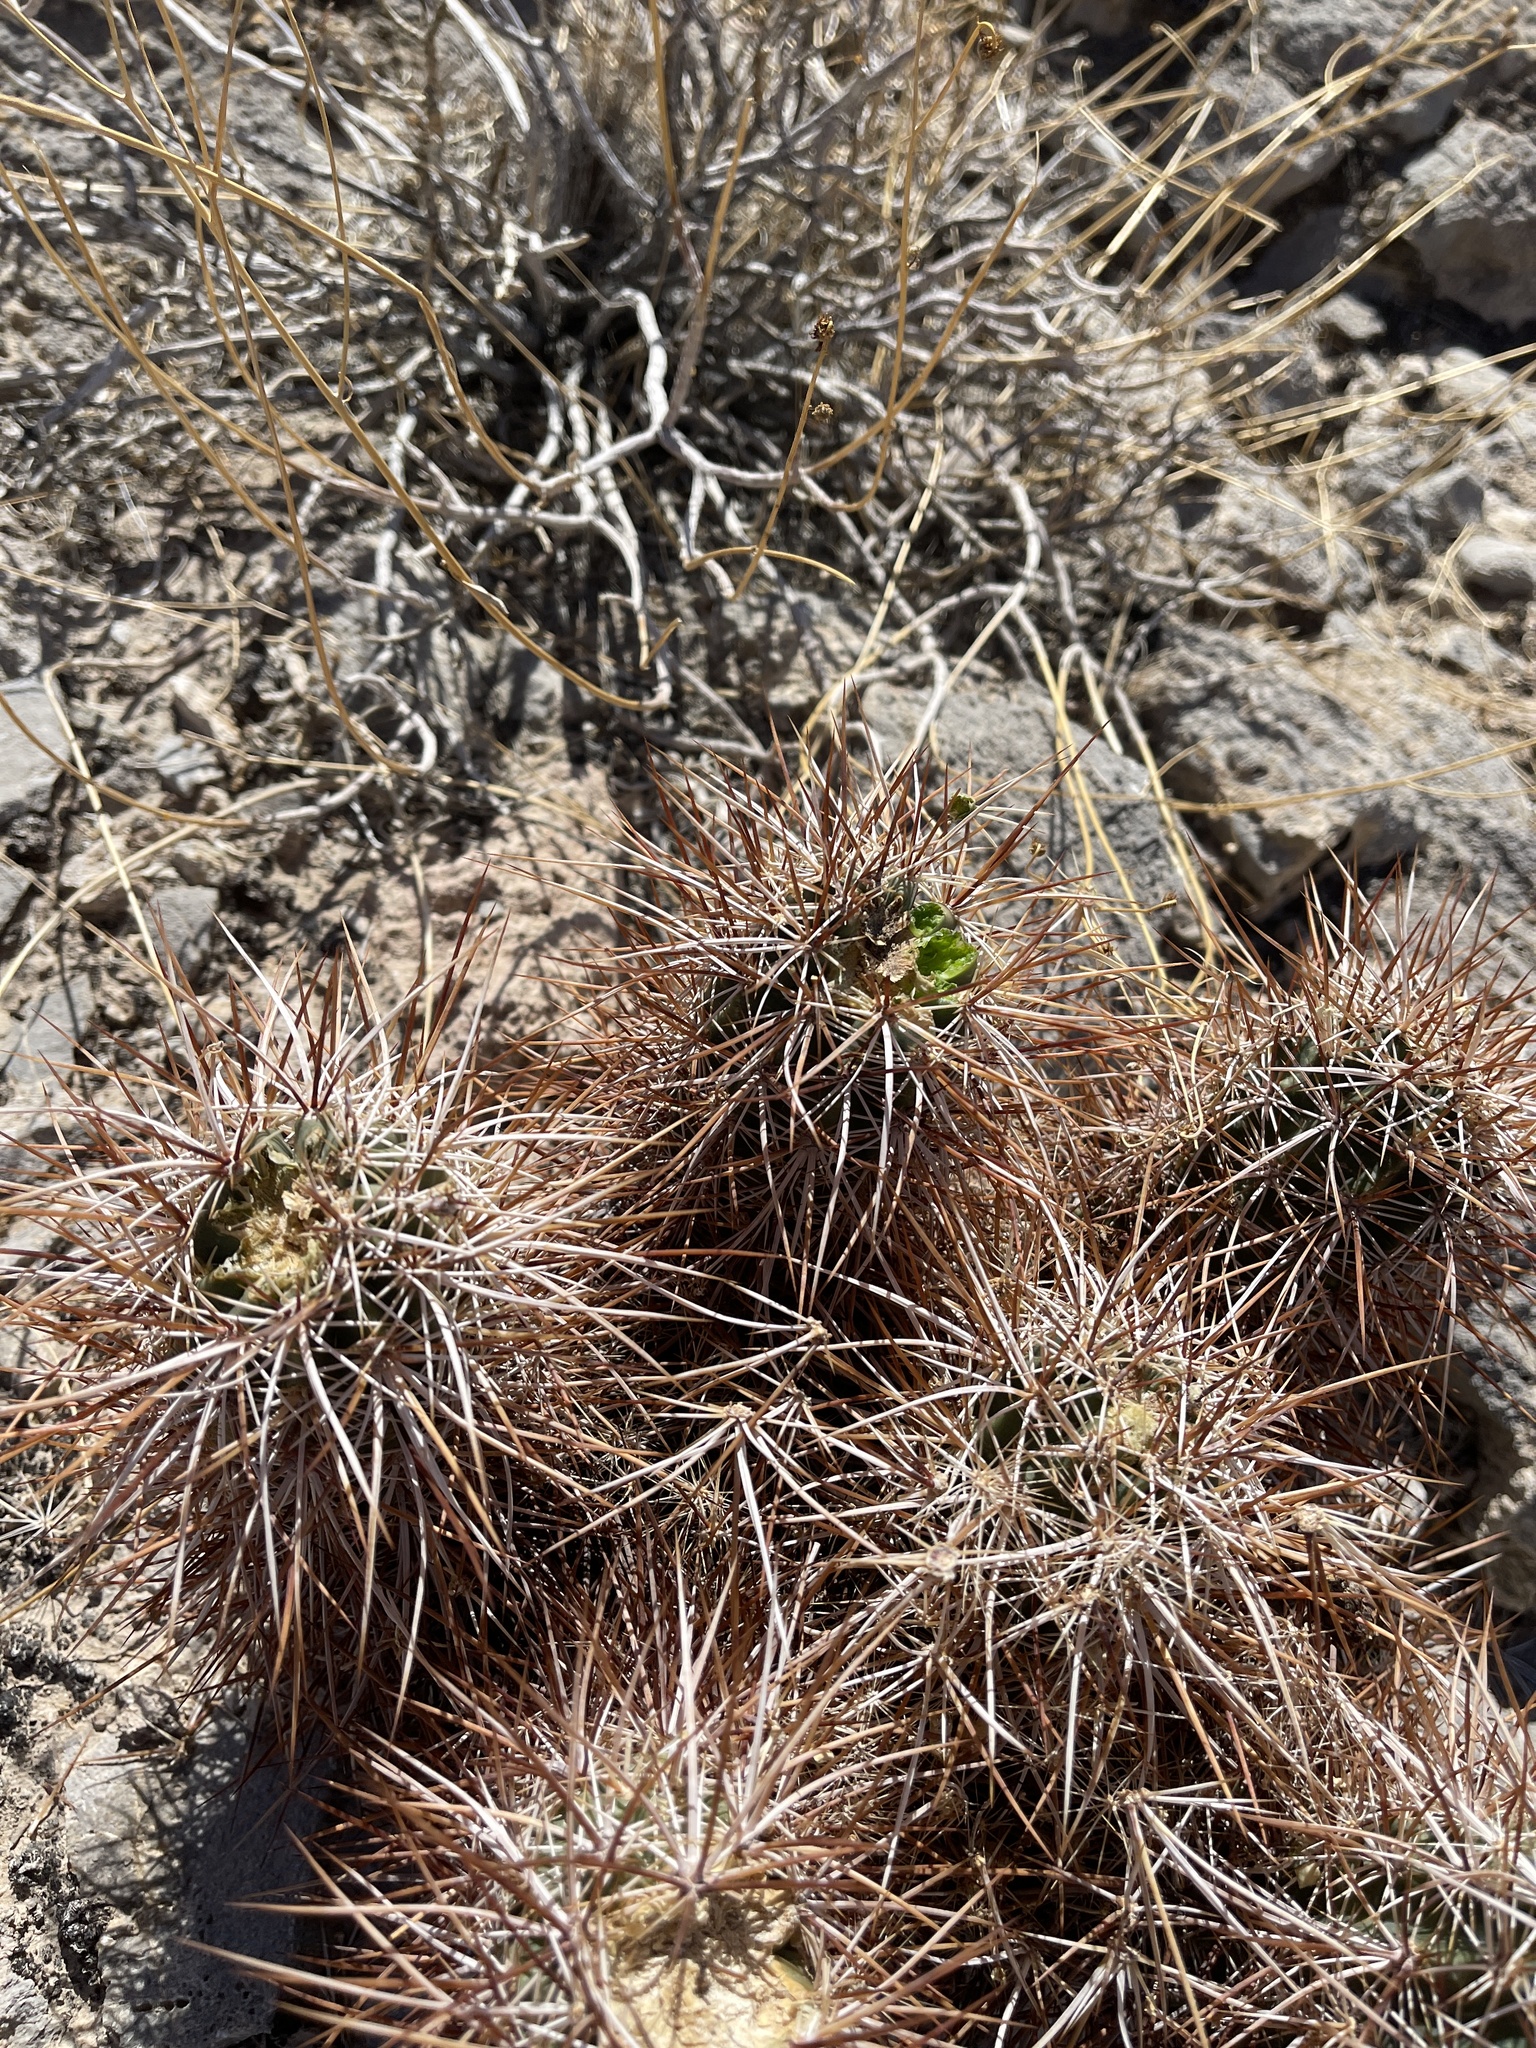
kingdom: Plantae
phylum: Tracheophyta
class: Magnoliopsida
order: Caryophyllales
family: Cactaceae
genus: Echinocereus
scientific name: Echinocereus engelmannii
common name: Engelmann's hedgehog cactus
